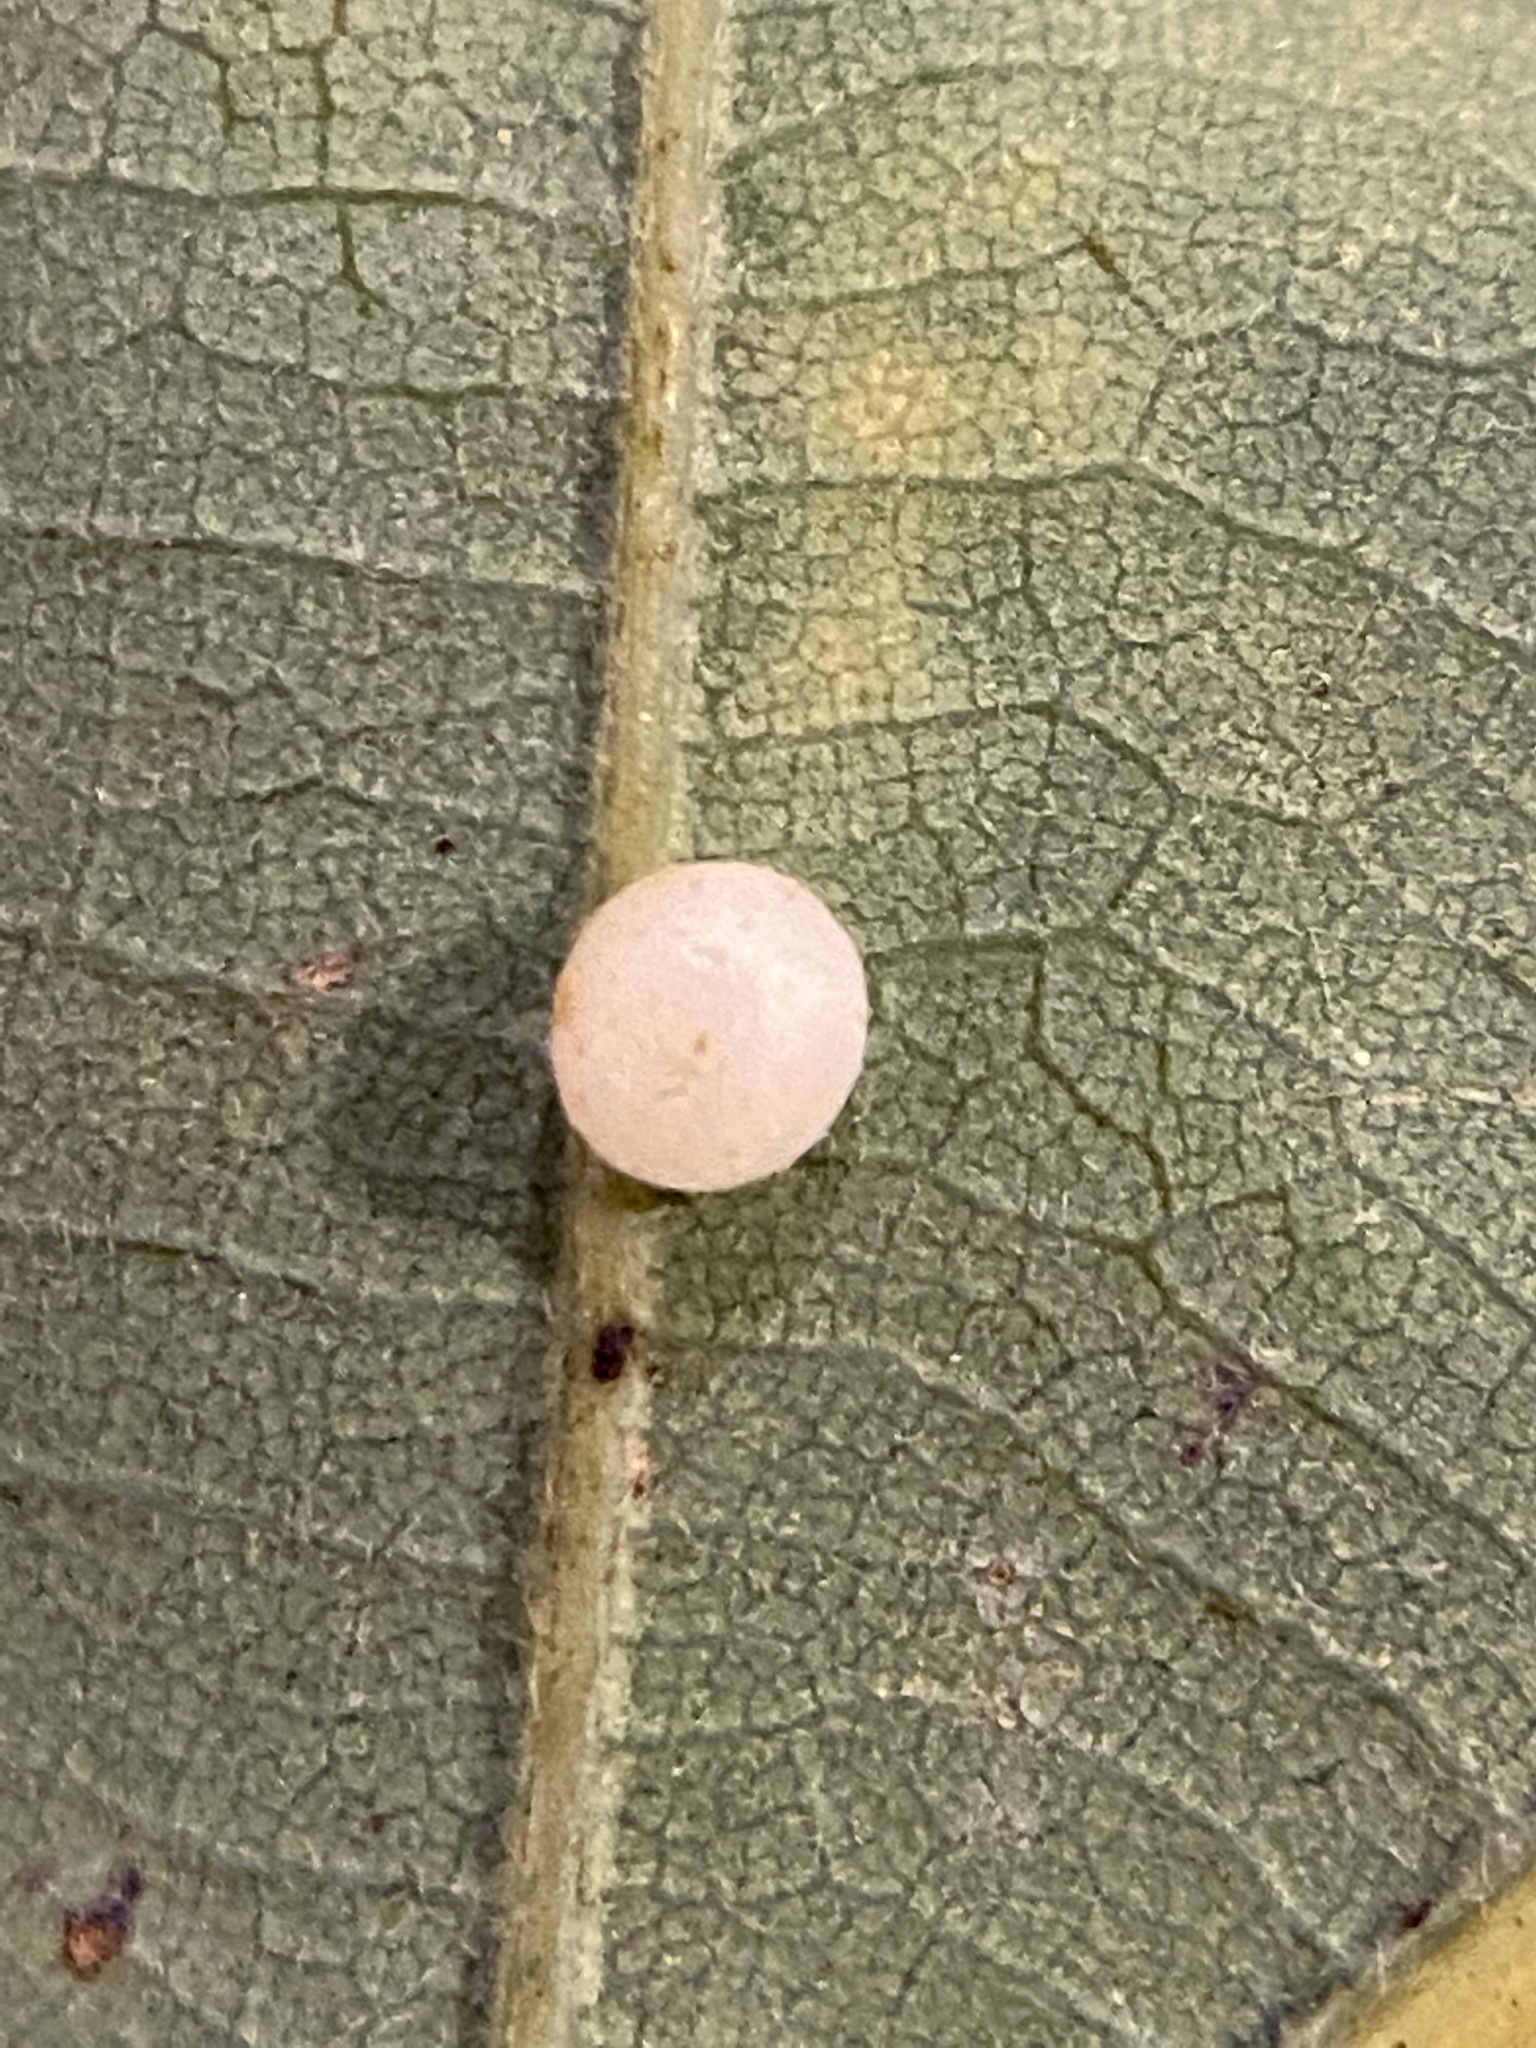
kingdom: Animalia
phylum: Arthropoda
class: Insecta
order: Hymenoptera
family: Cynipidae
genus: Phylloteras
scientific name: Phylloteras
